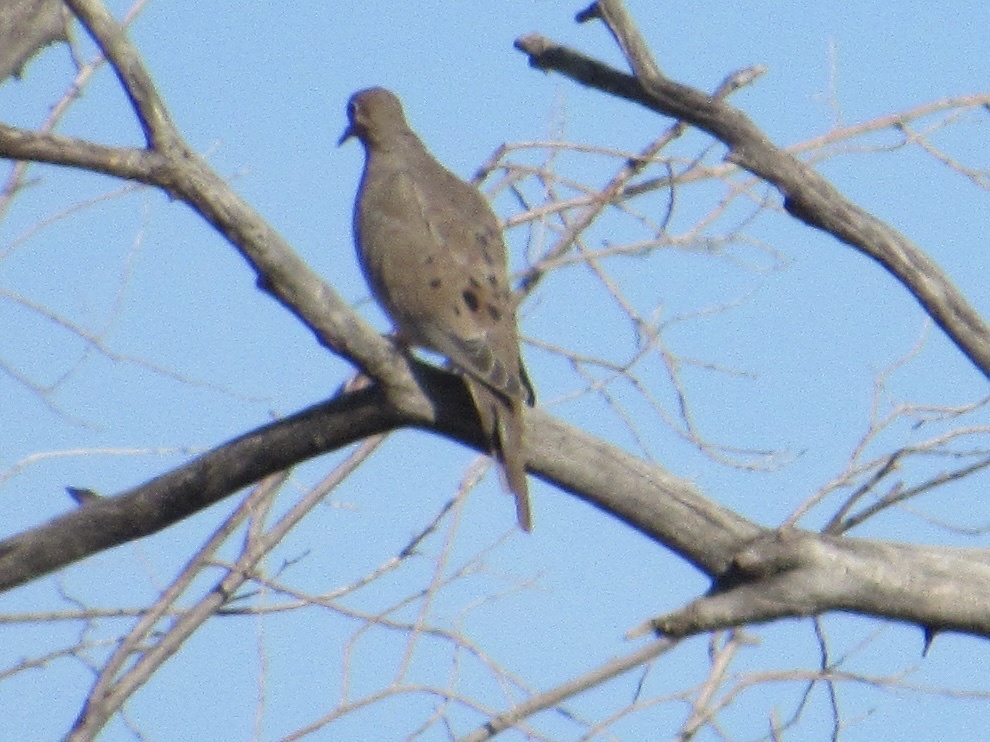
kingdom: Animalia
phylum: Chordata
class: Aves
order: Columbiformes
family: Columbidae
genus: Zenaida
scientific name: Zenaida macroura
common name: Mourning dove
